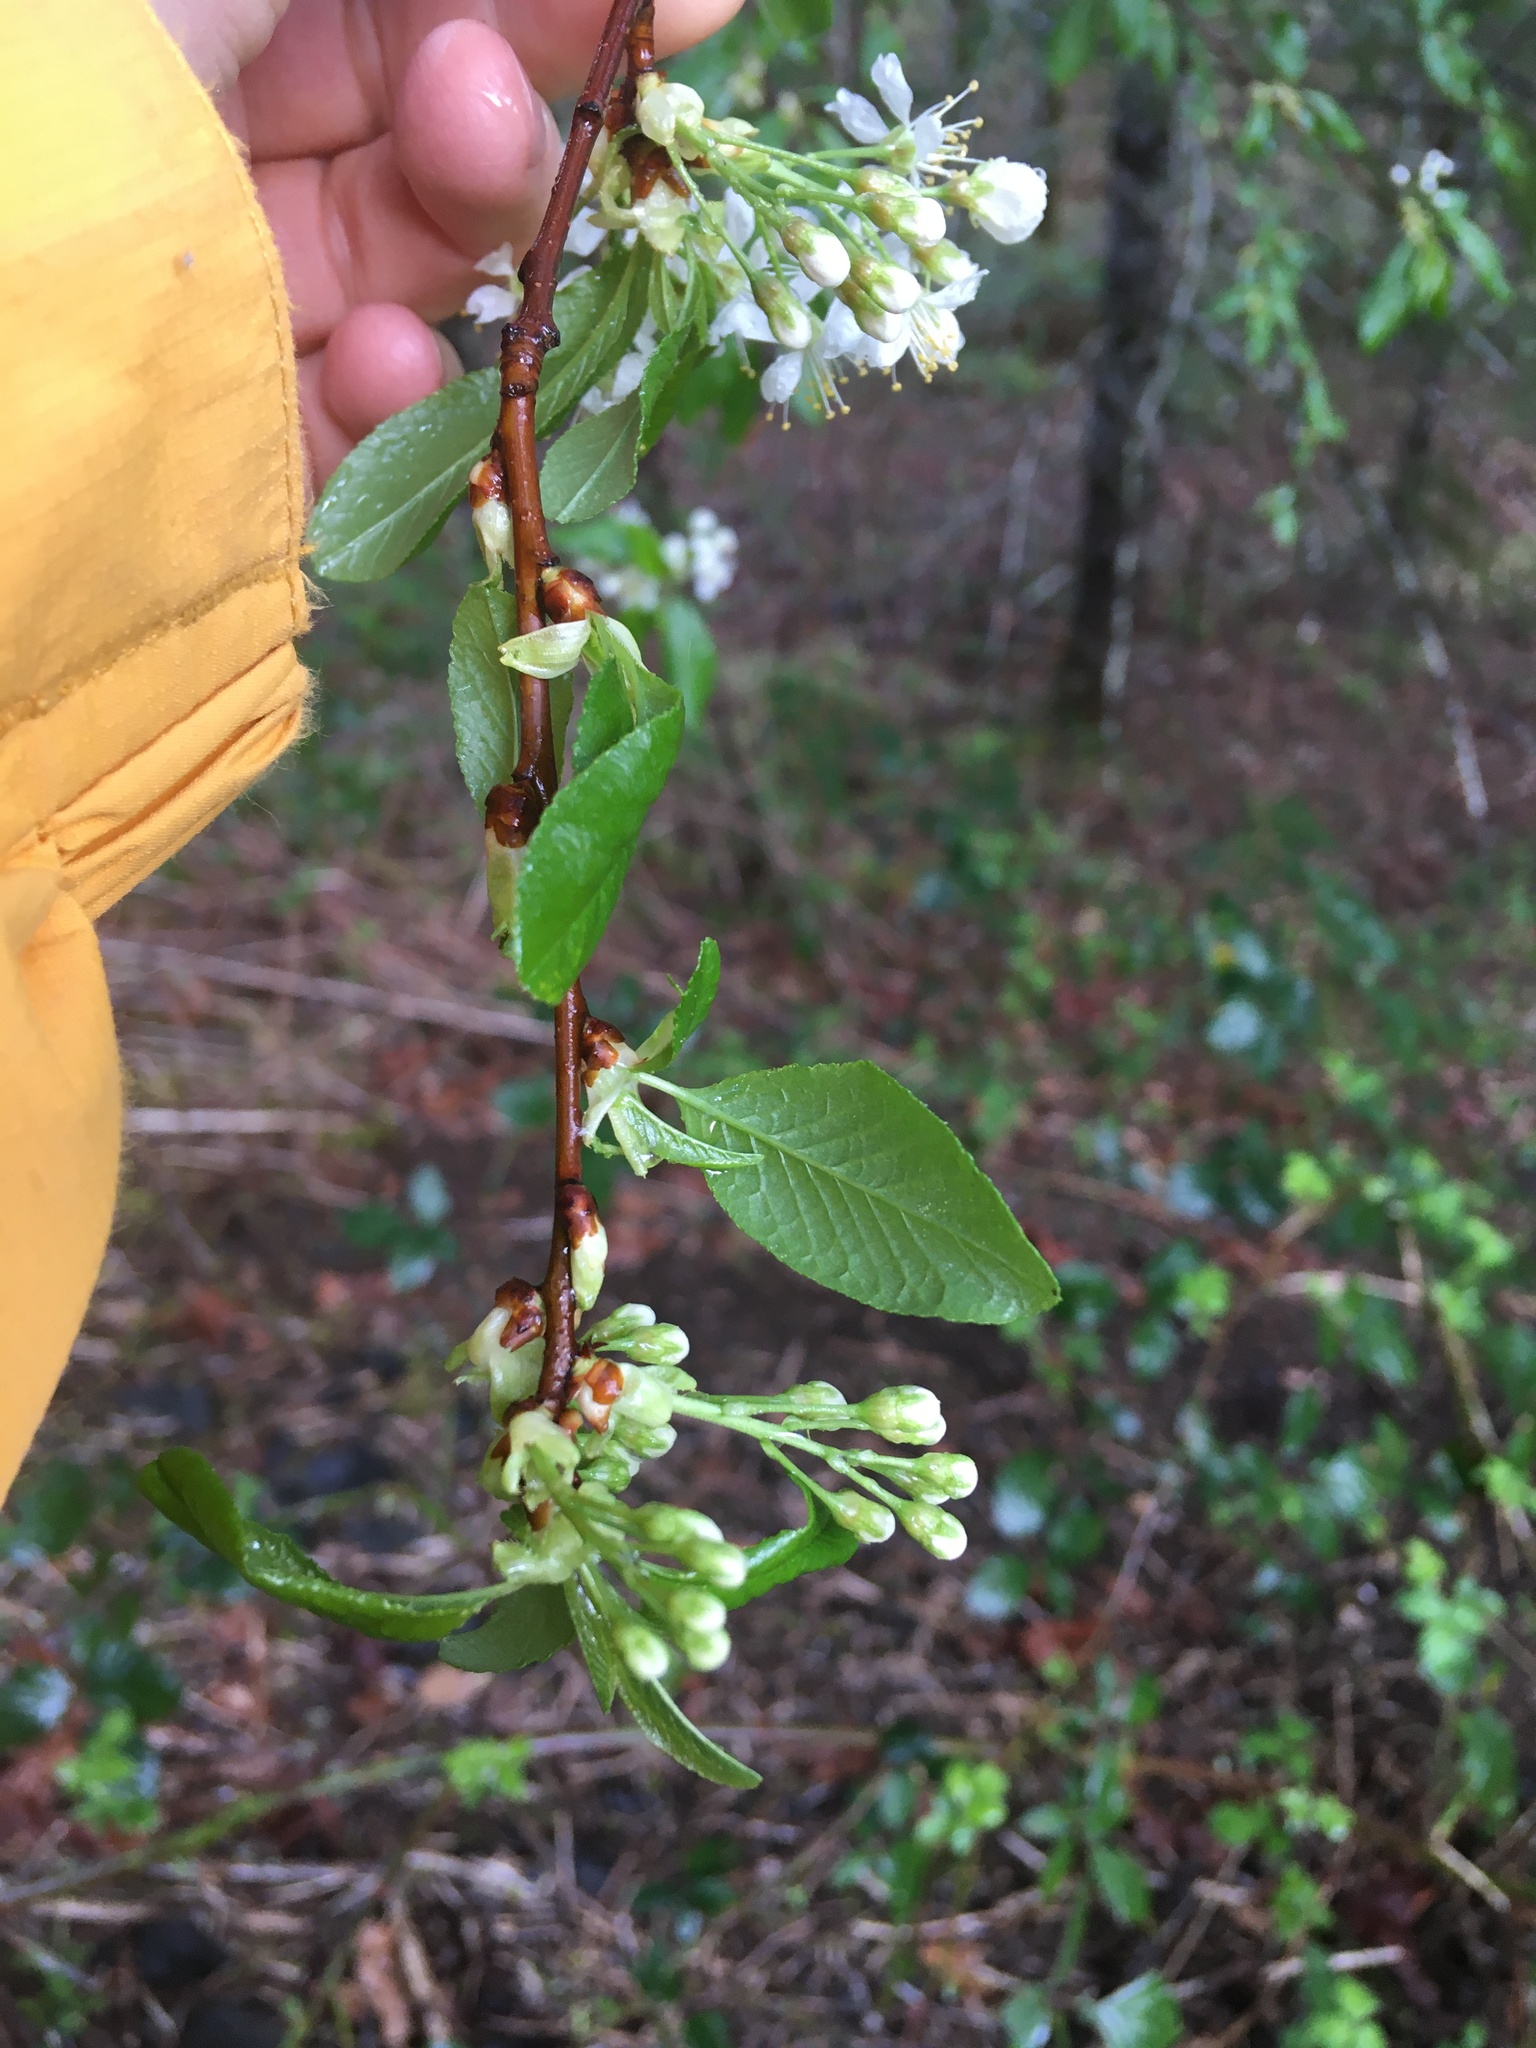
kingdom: Plantae
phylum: Tracheophyta
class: Magnoliopsida
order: Rosales
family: Rosaceae
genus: Prunus
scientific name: Prunus emarginata
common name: Bitter cherry
